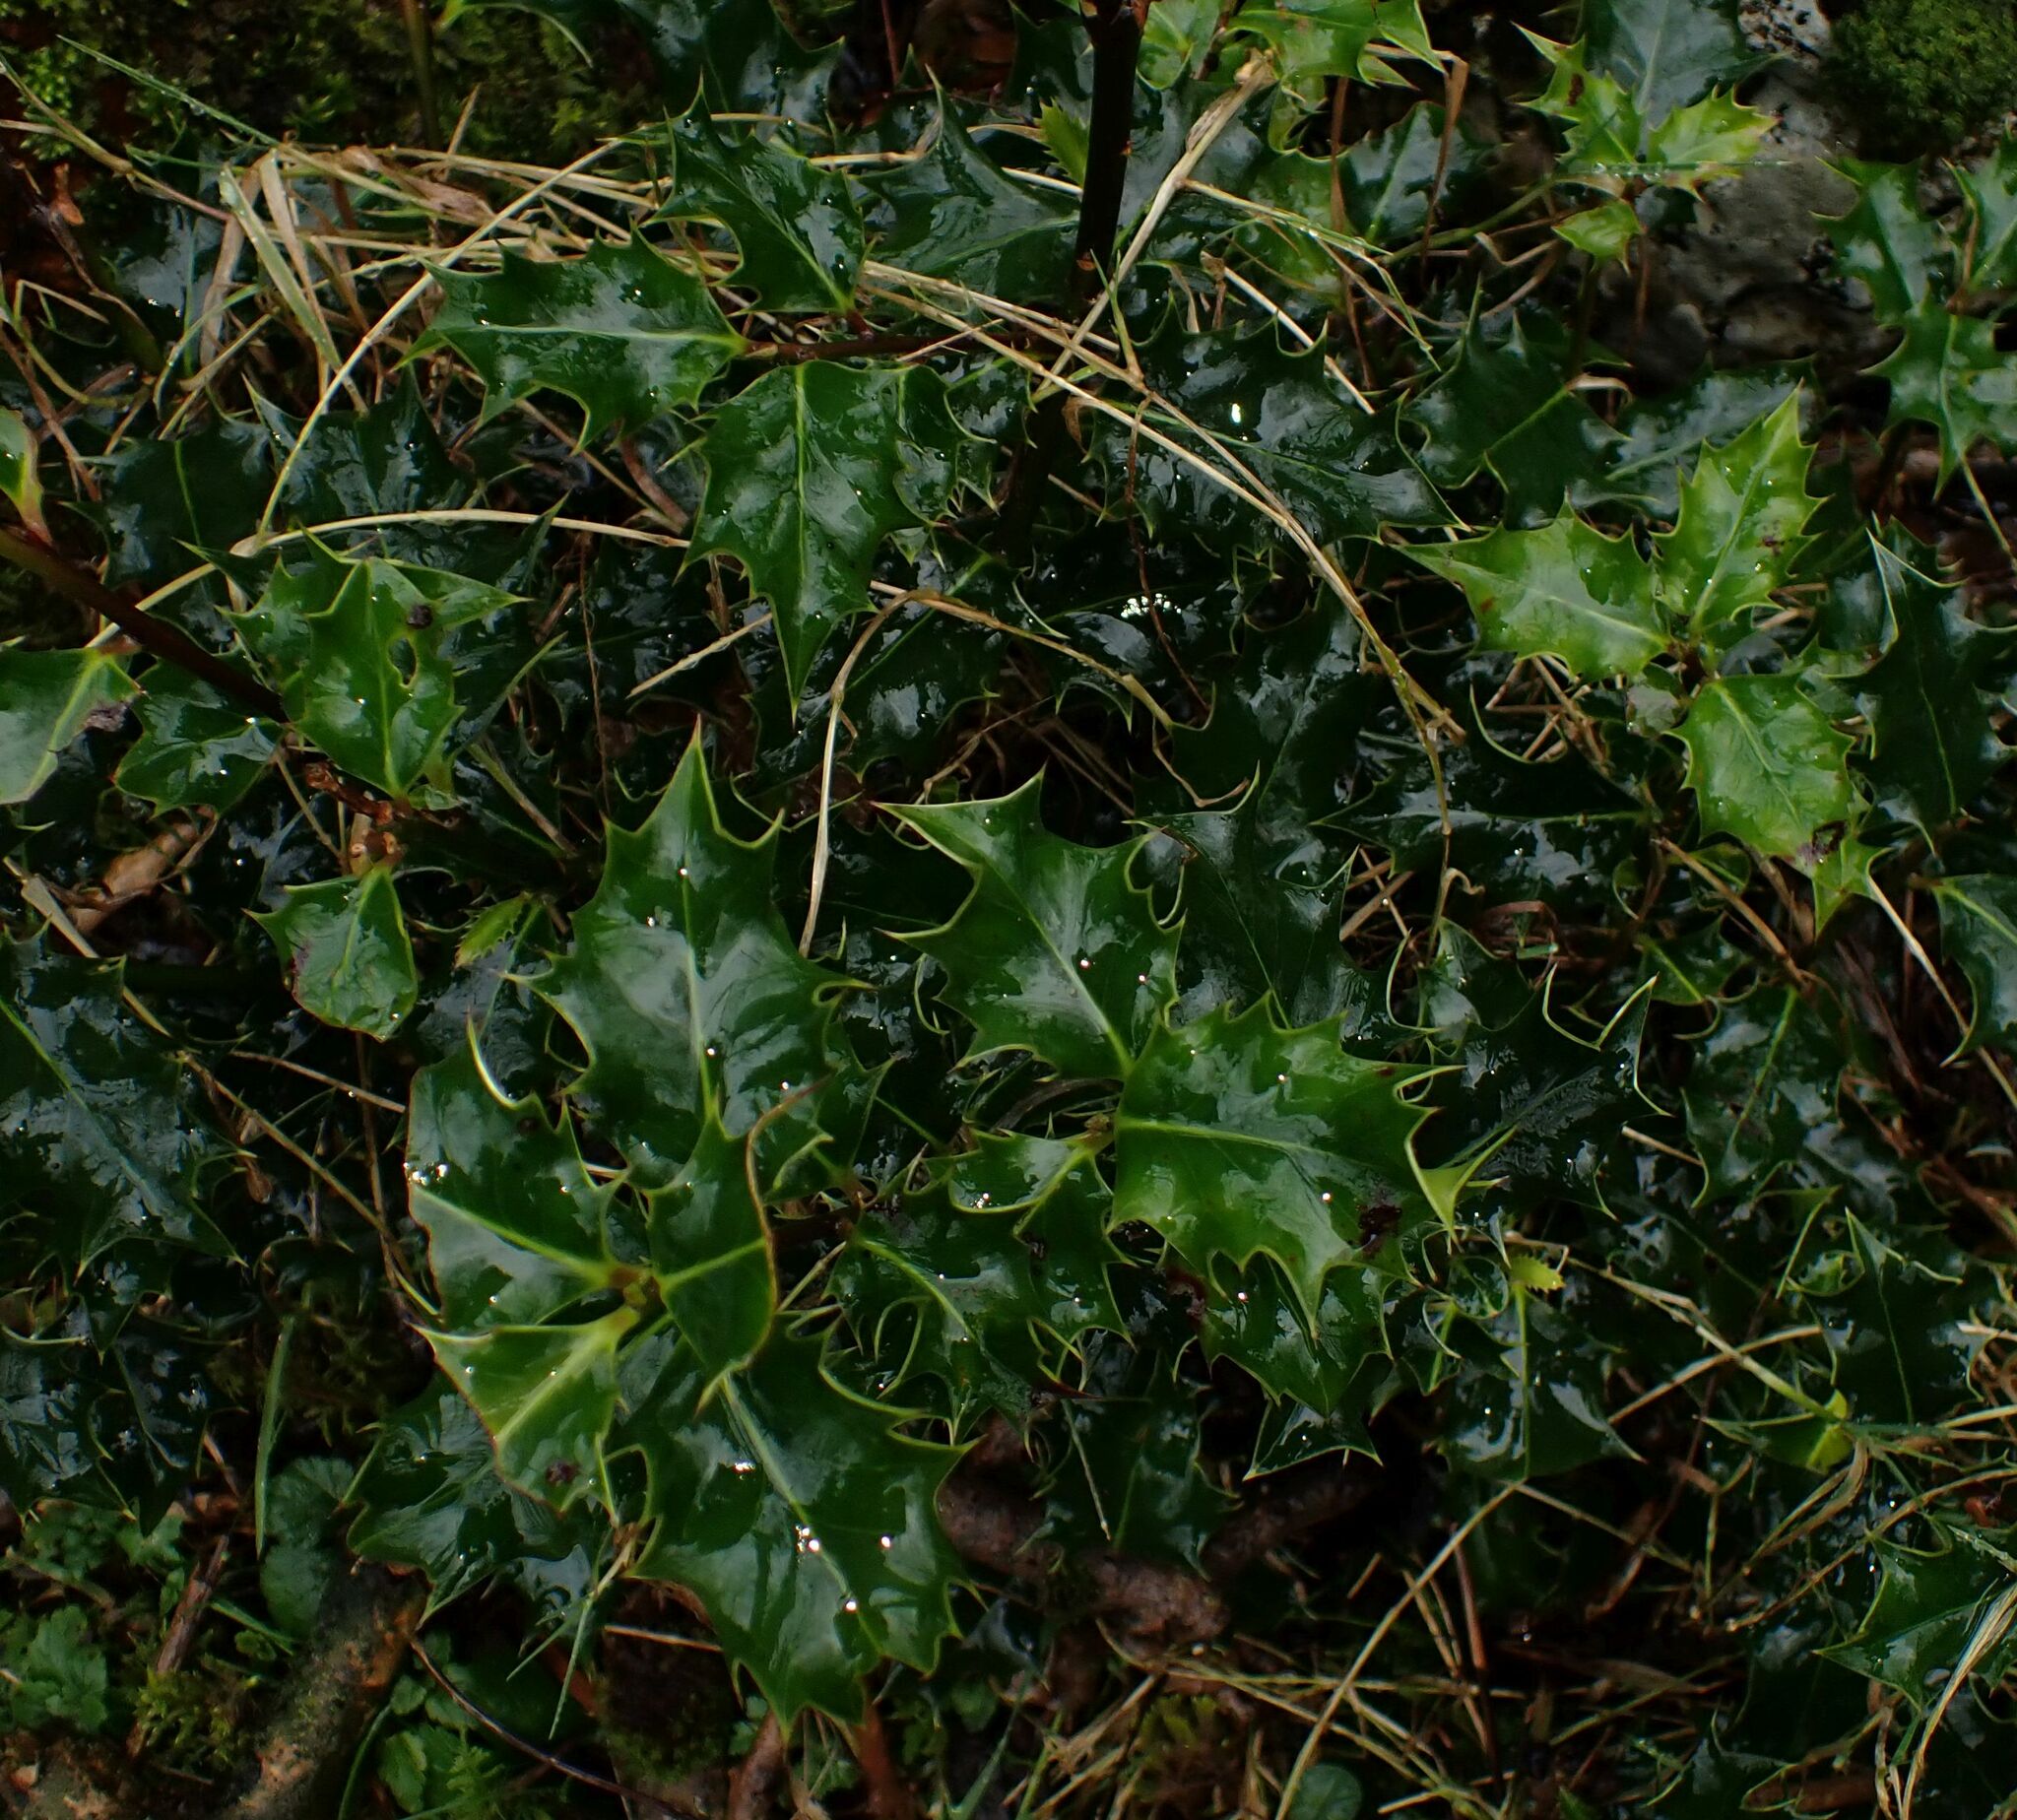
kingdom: Plantae
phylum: Tracheophyta
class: Magnoliopsida
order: Aquifoliales
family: Aquifoliaceae
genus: Ilex
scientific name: Ilex aquifolium
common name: English holly
